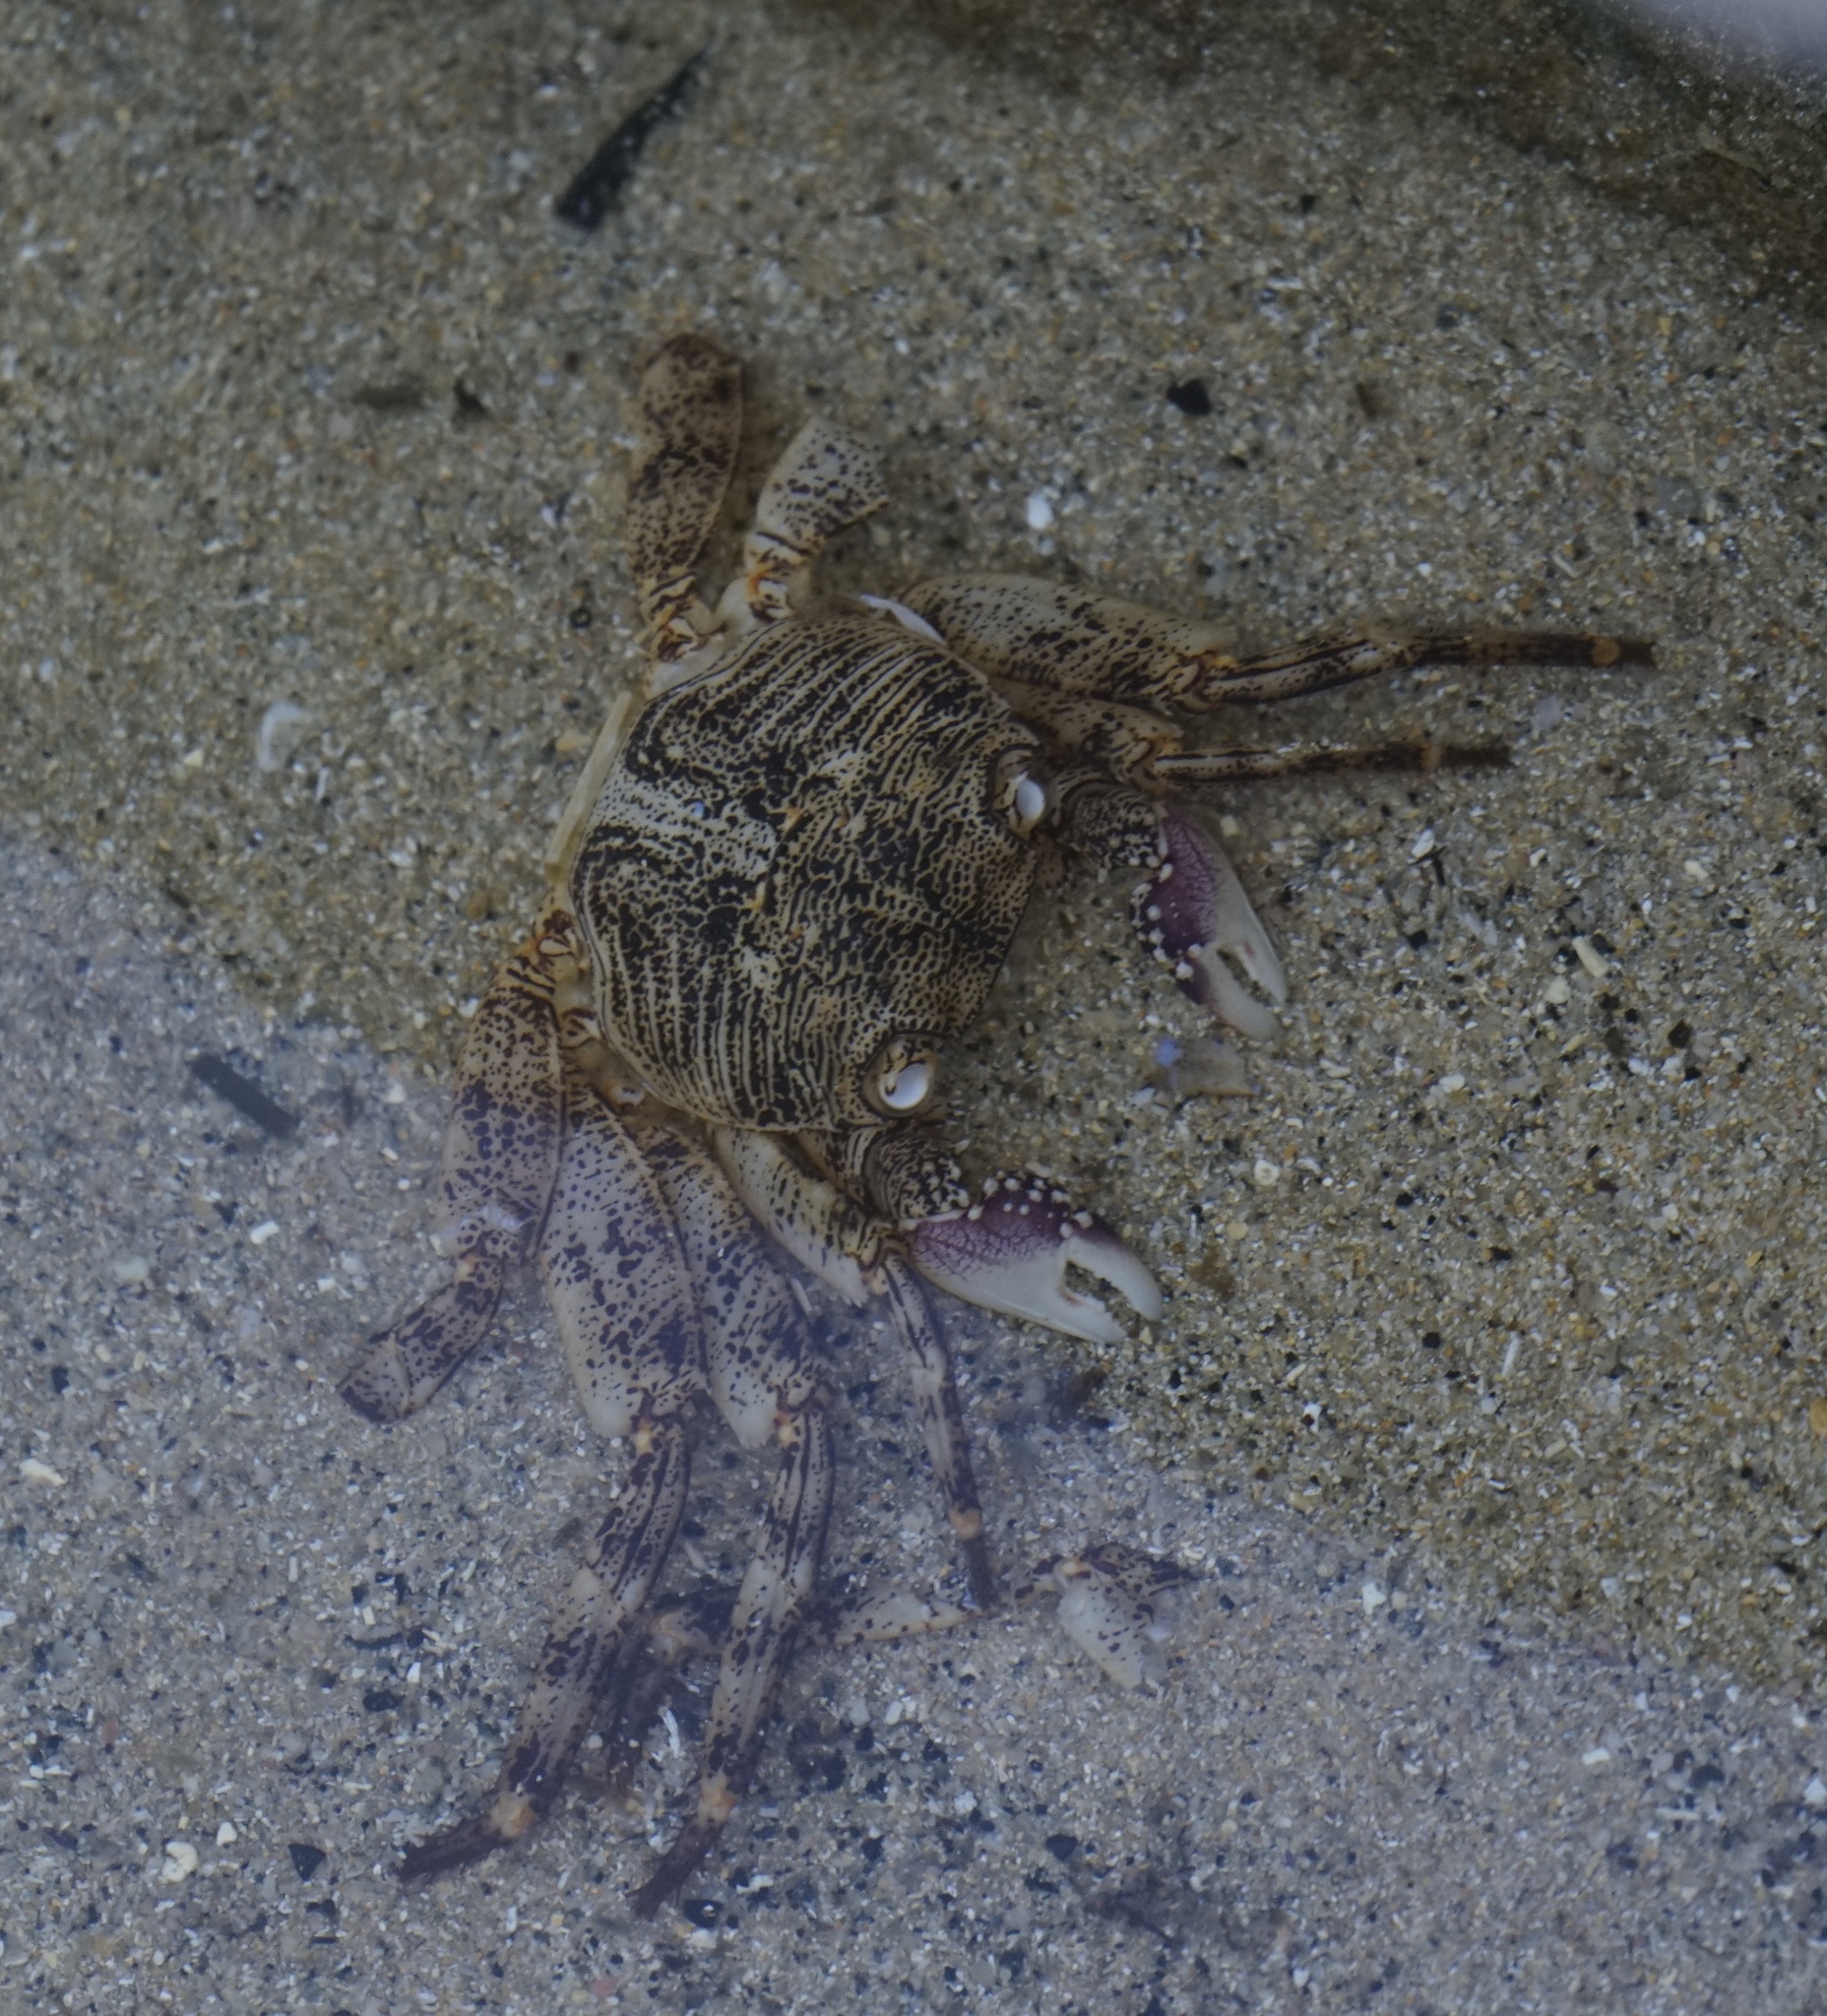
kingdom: Animalia
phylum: Arthropoda
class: Malacostraca
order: Decapoda
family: Grapsidae
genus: Leptograpsus
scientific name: Leptograpsus variegatus
